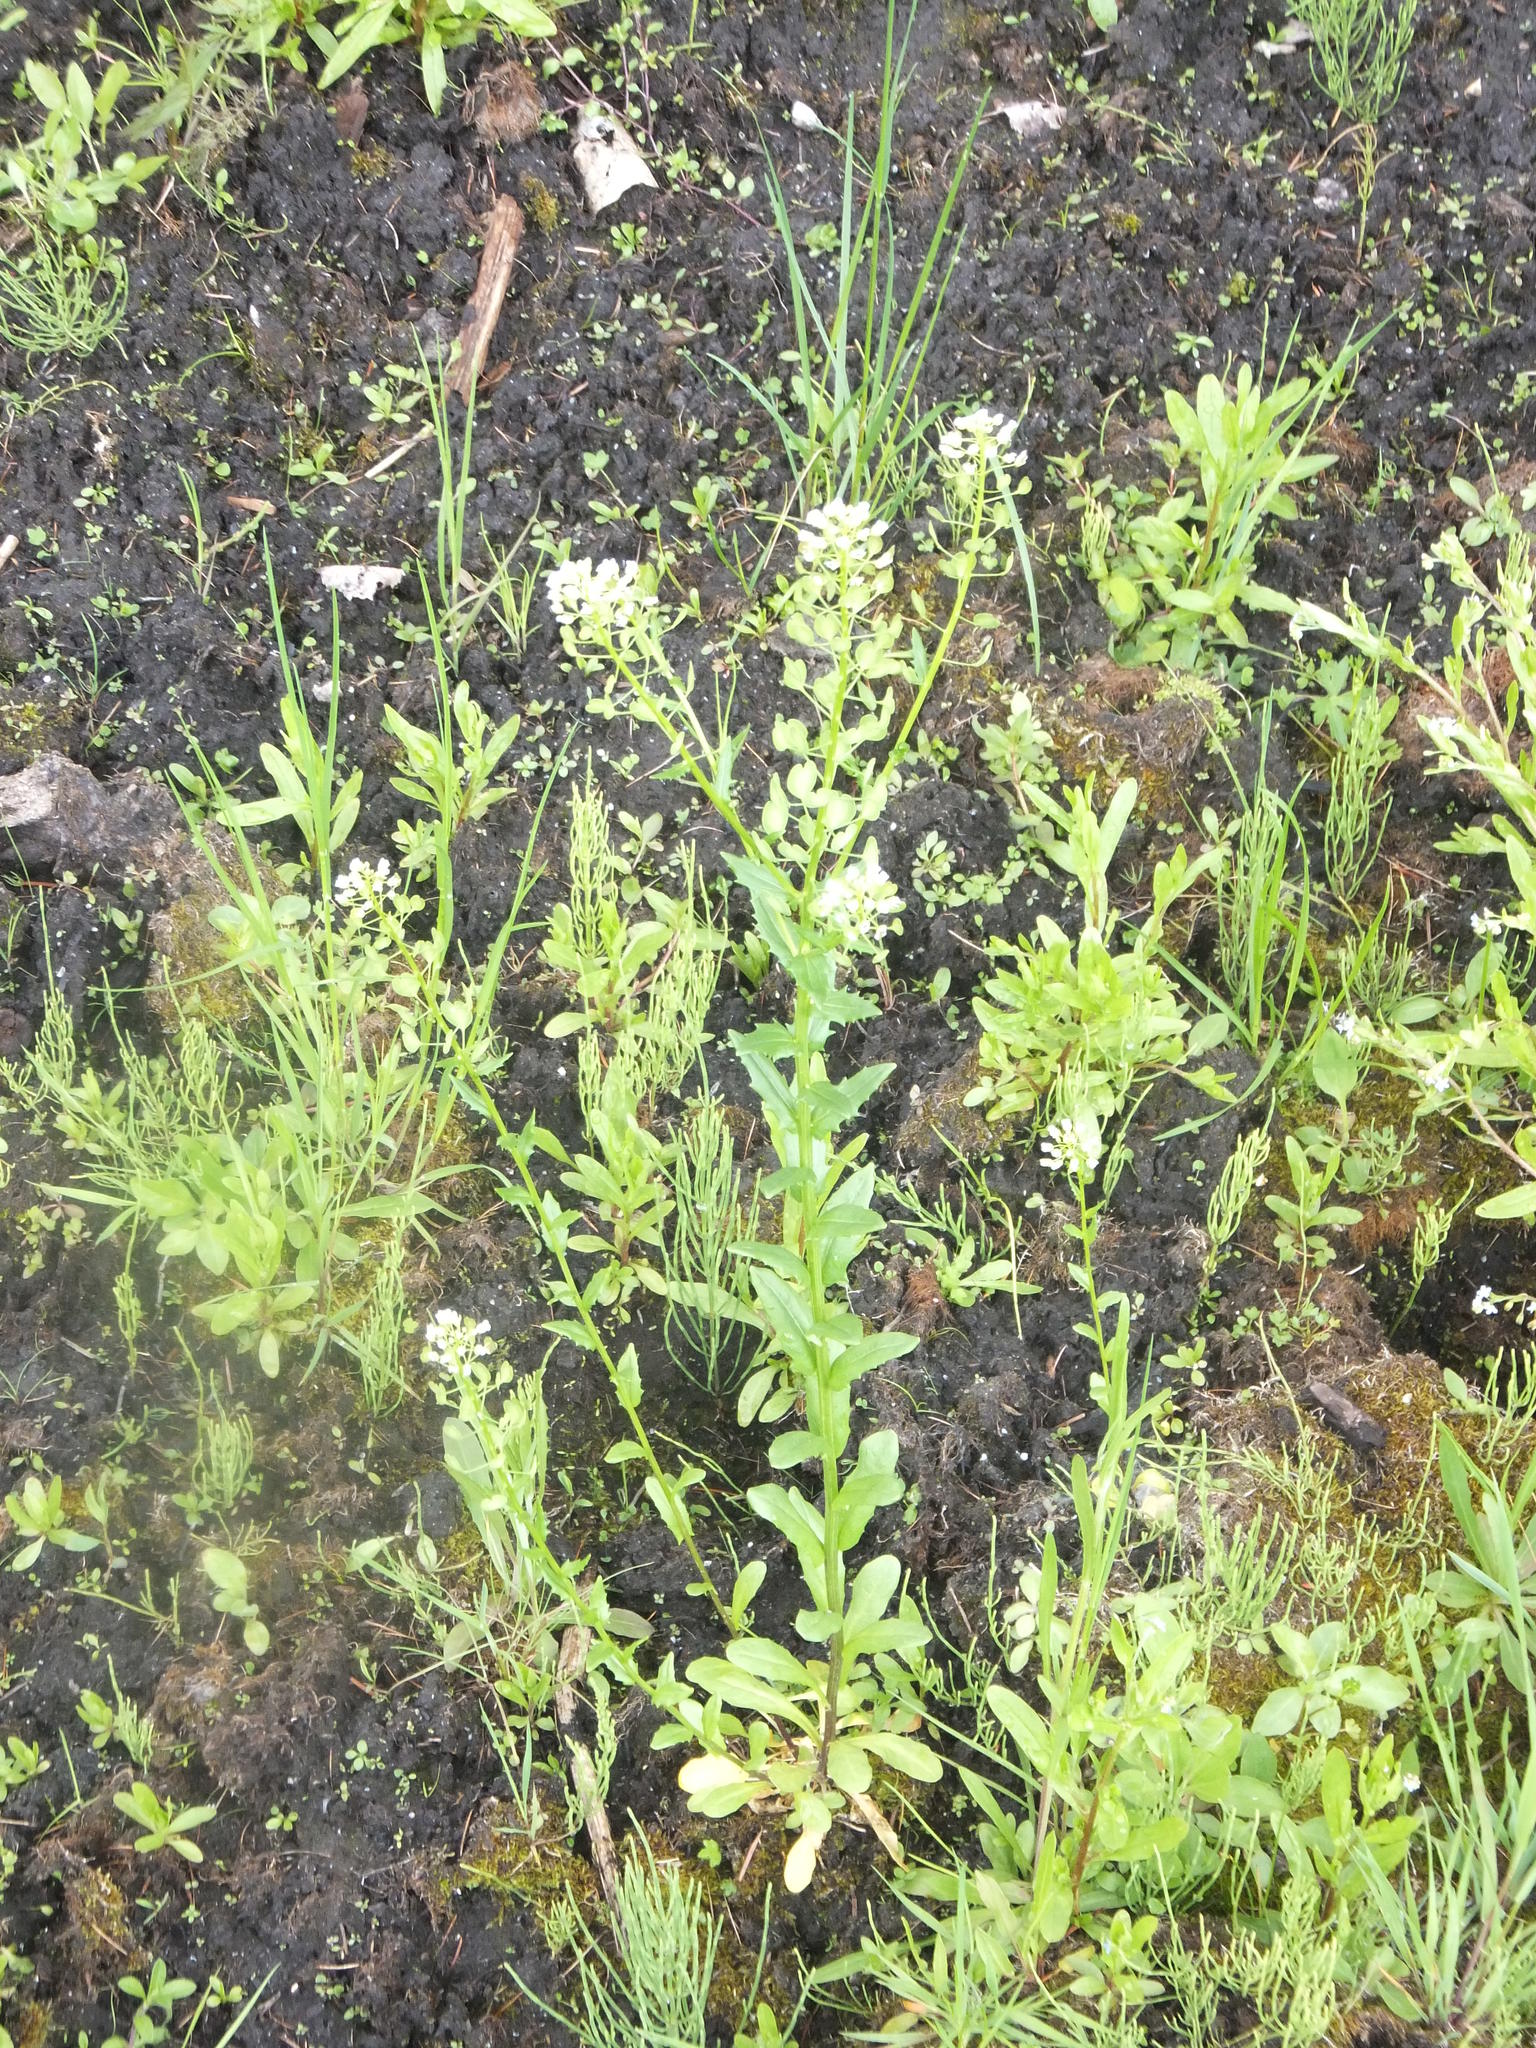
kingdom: Plantae
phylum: Tracheophyta
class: Magnoliopsida
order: Brassicales
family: Brassicaceae
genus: Thlaspi
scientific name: Thlaspi arvense
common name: Field pennycress
